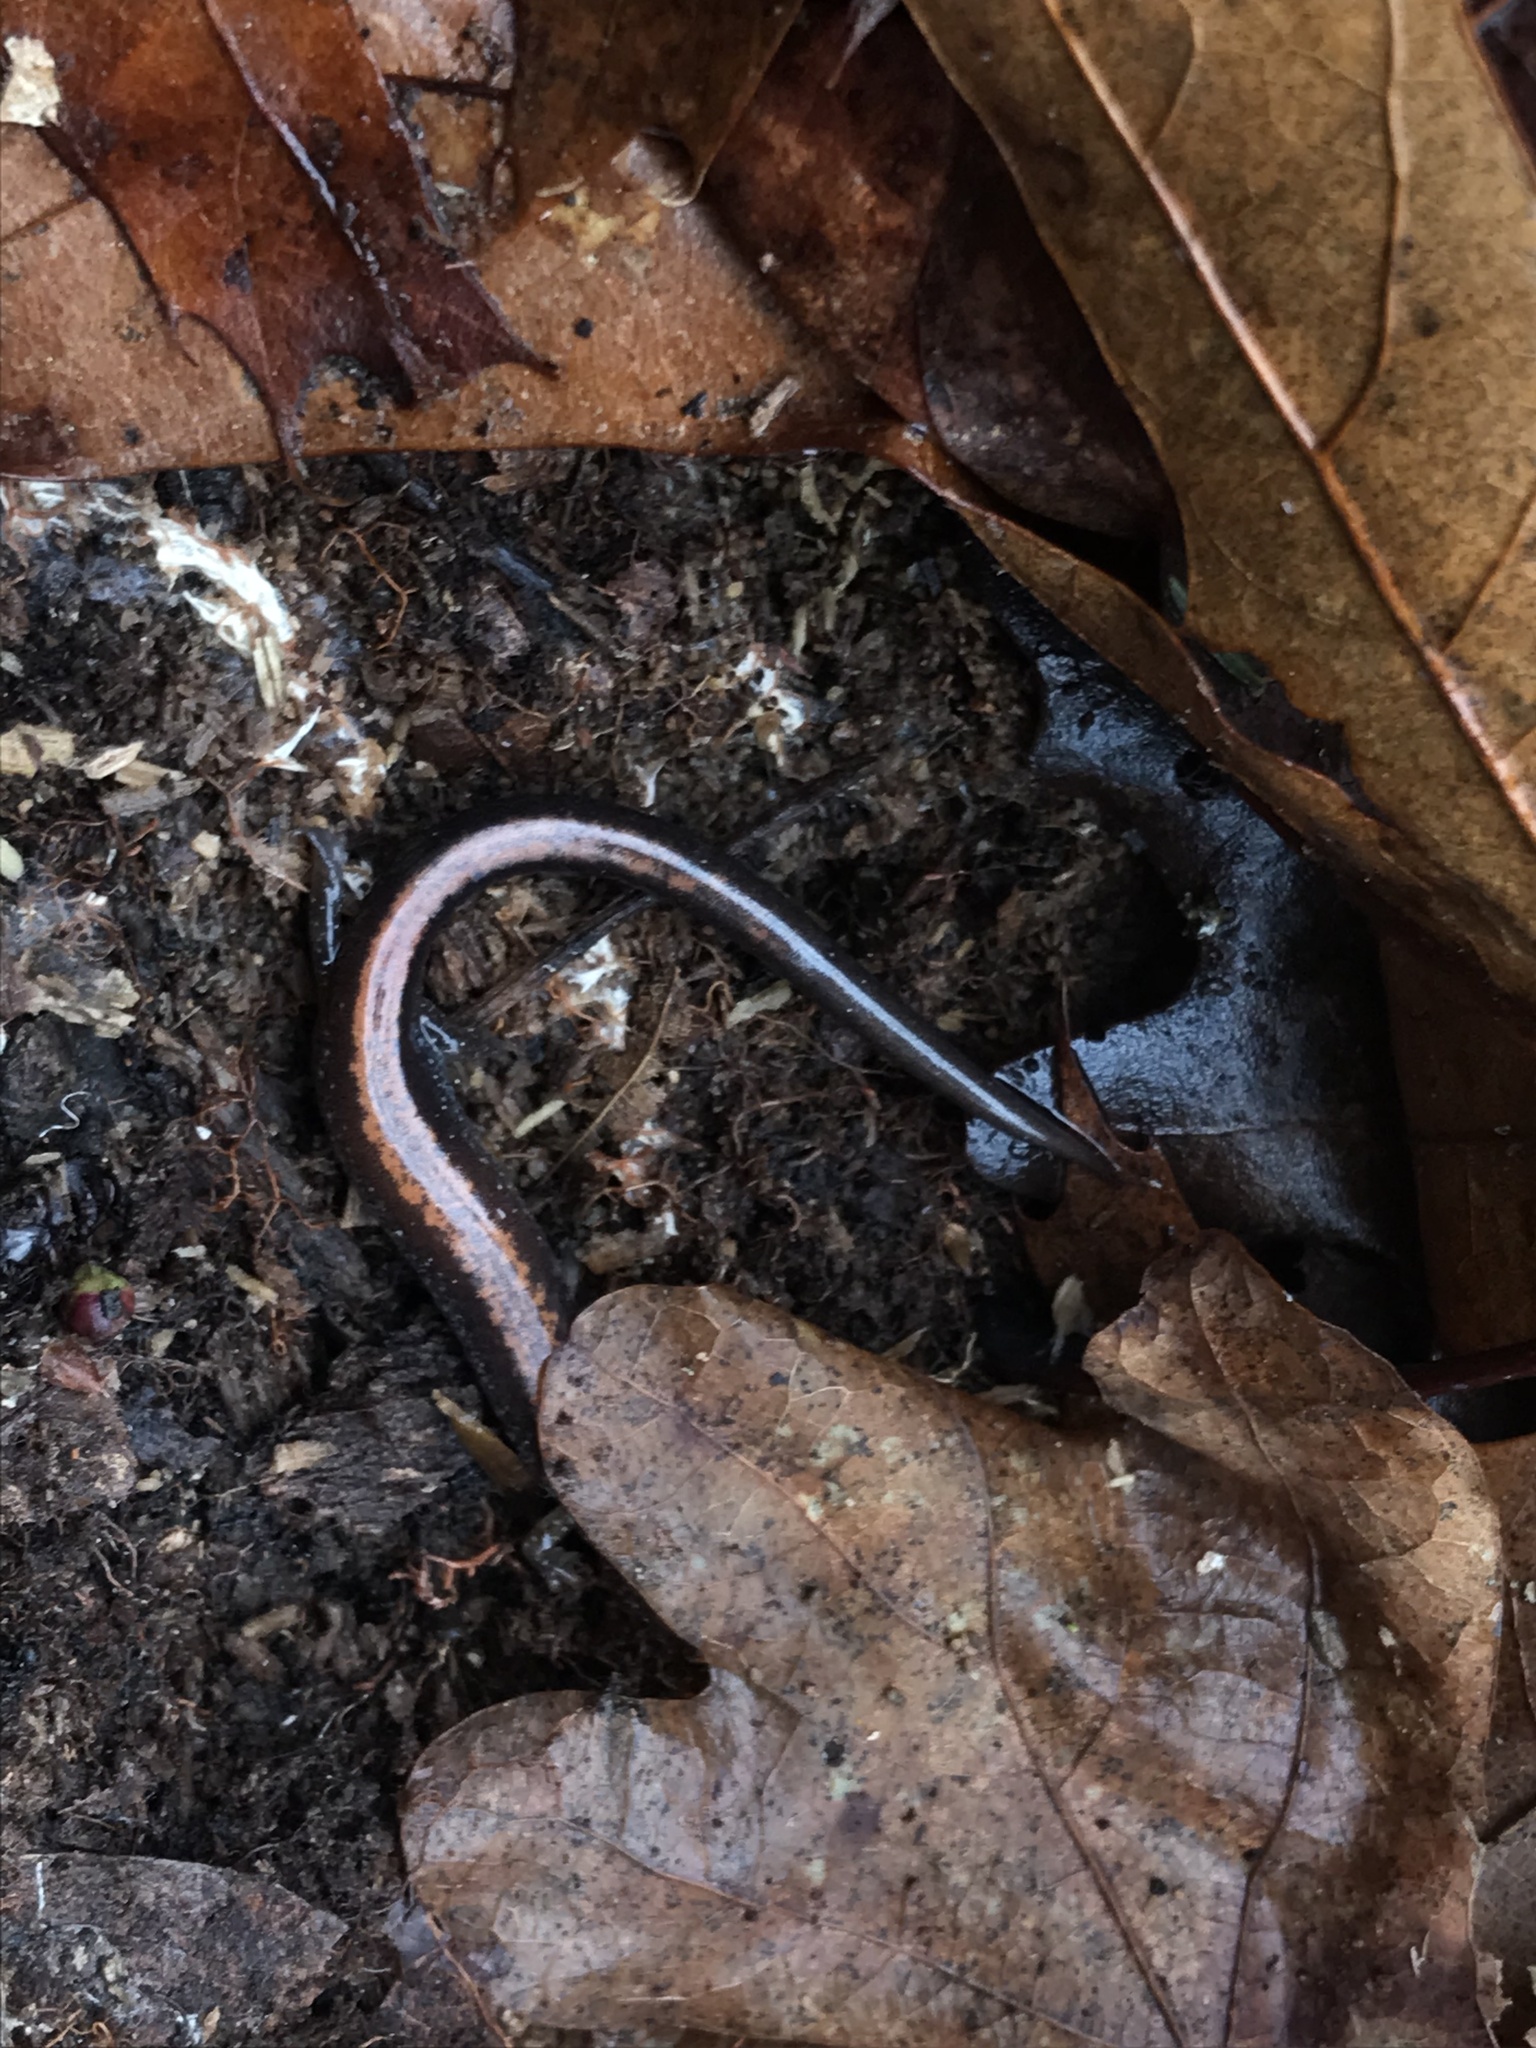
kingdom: Animalia
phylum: Chordata
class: Amphibia
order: Caudata
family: Plethodontidae
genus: Plethodon
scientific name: Plethodon cinereus
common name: Redback salamander
